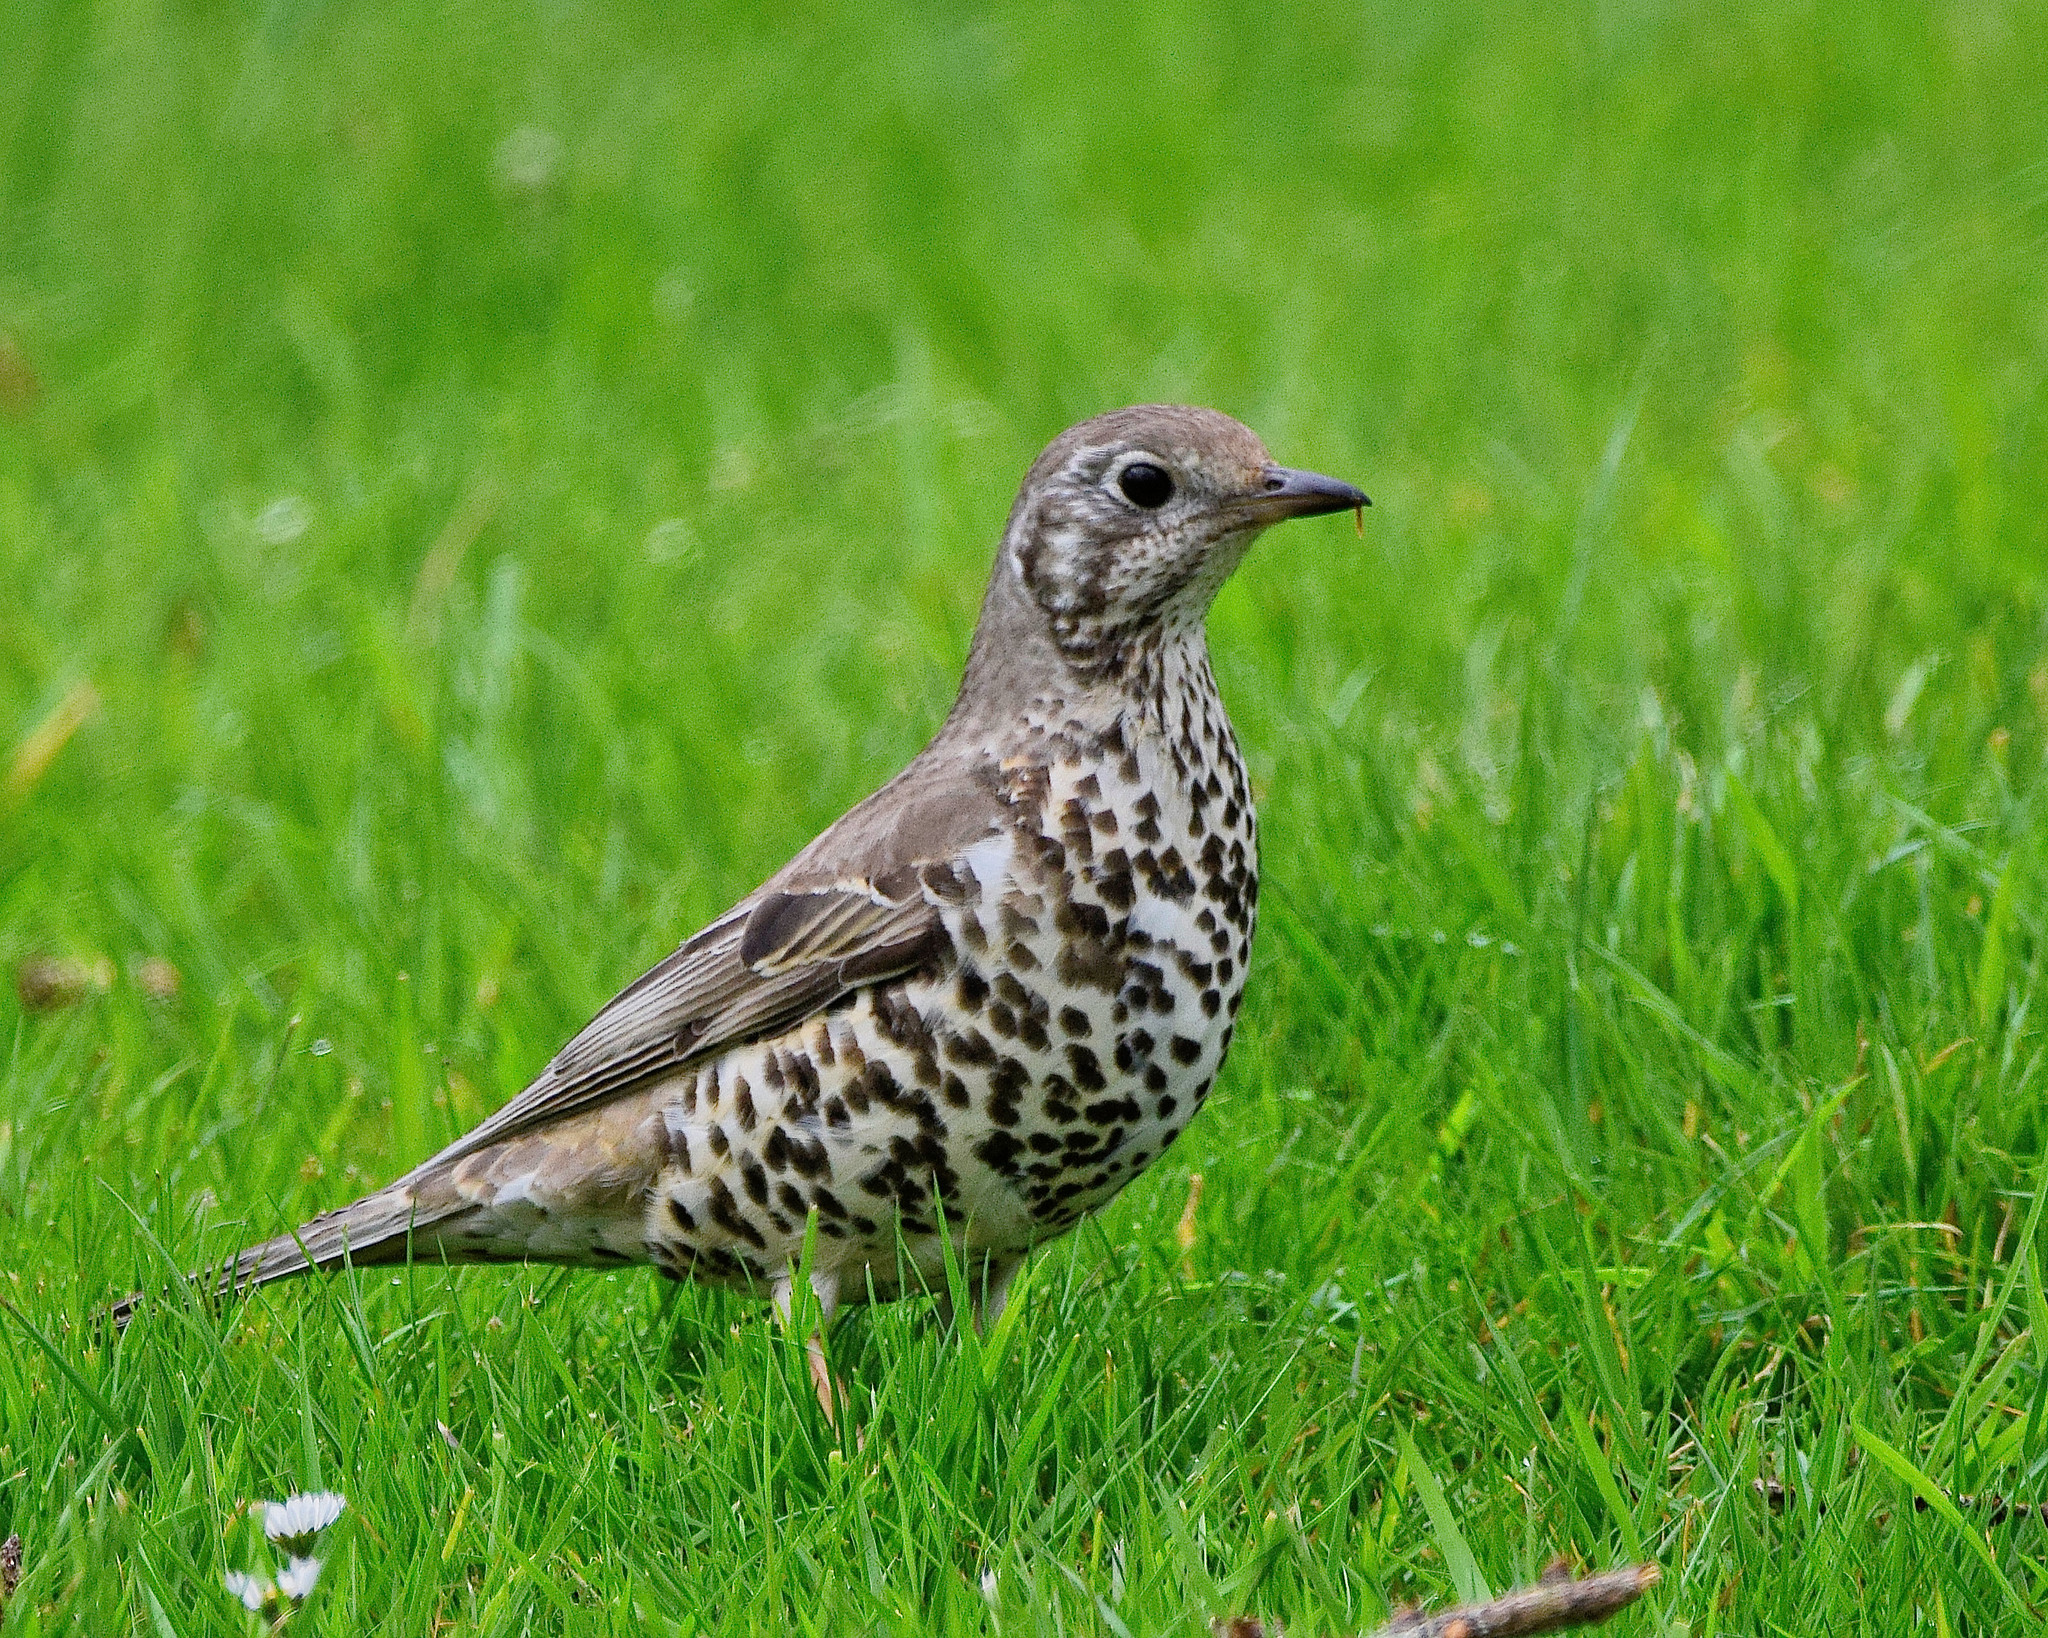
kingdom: Animalia
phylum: Chordata
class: Aves
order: Passeriformes
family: Turdidae
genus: Turdus
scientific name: Turdus viscivorus
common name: Mistle thrush
